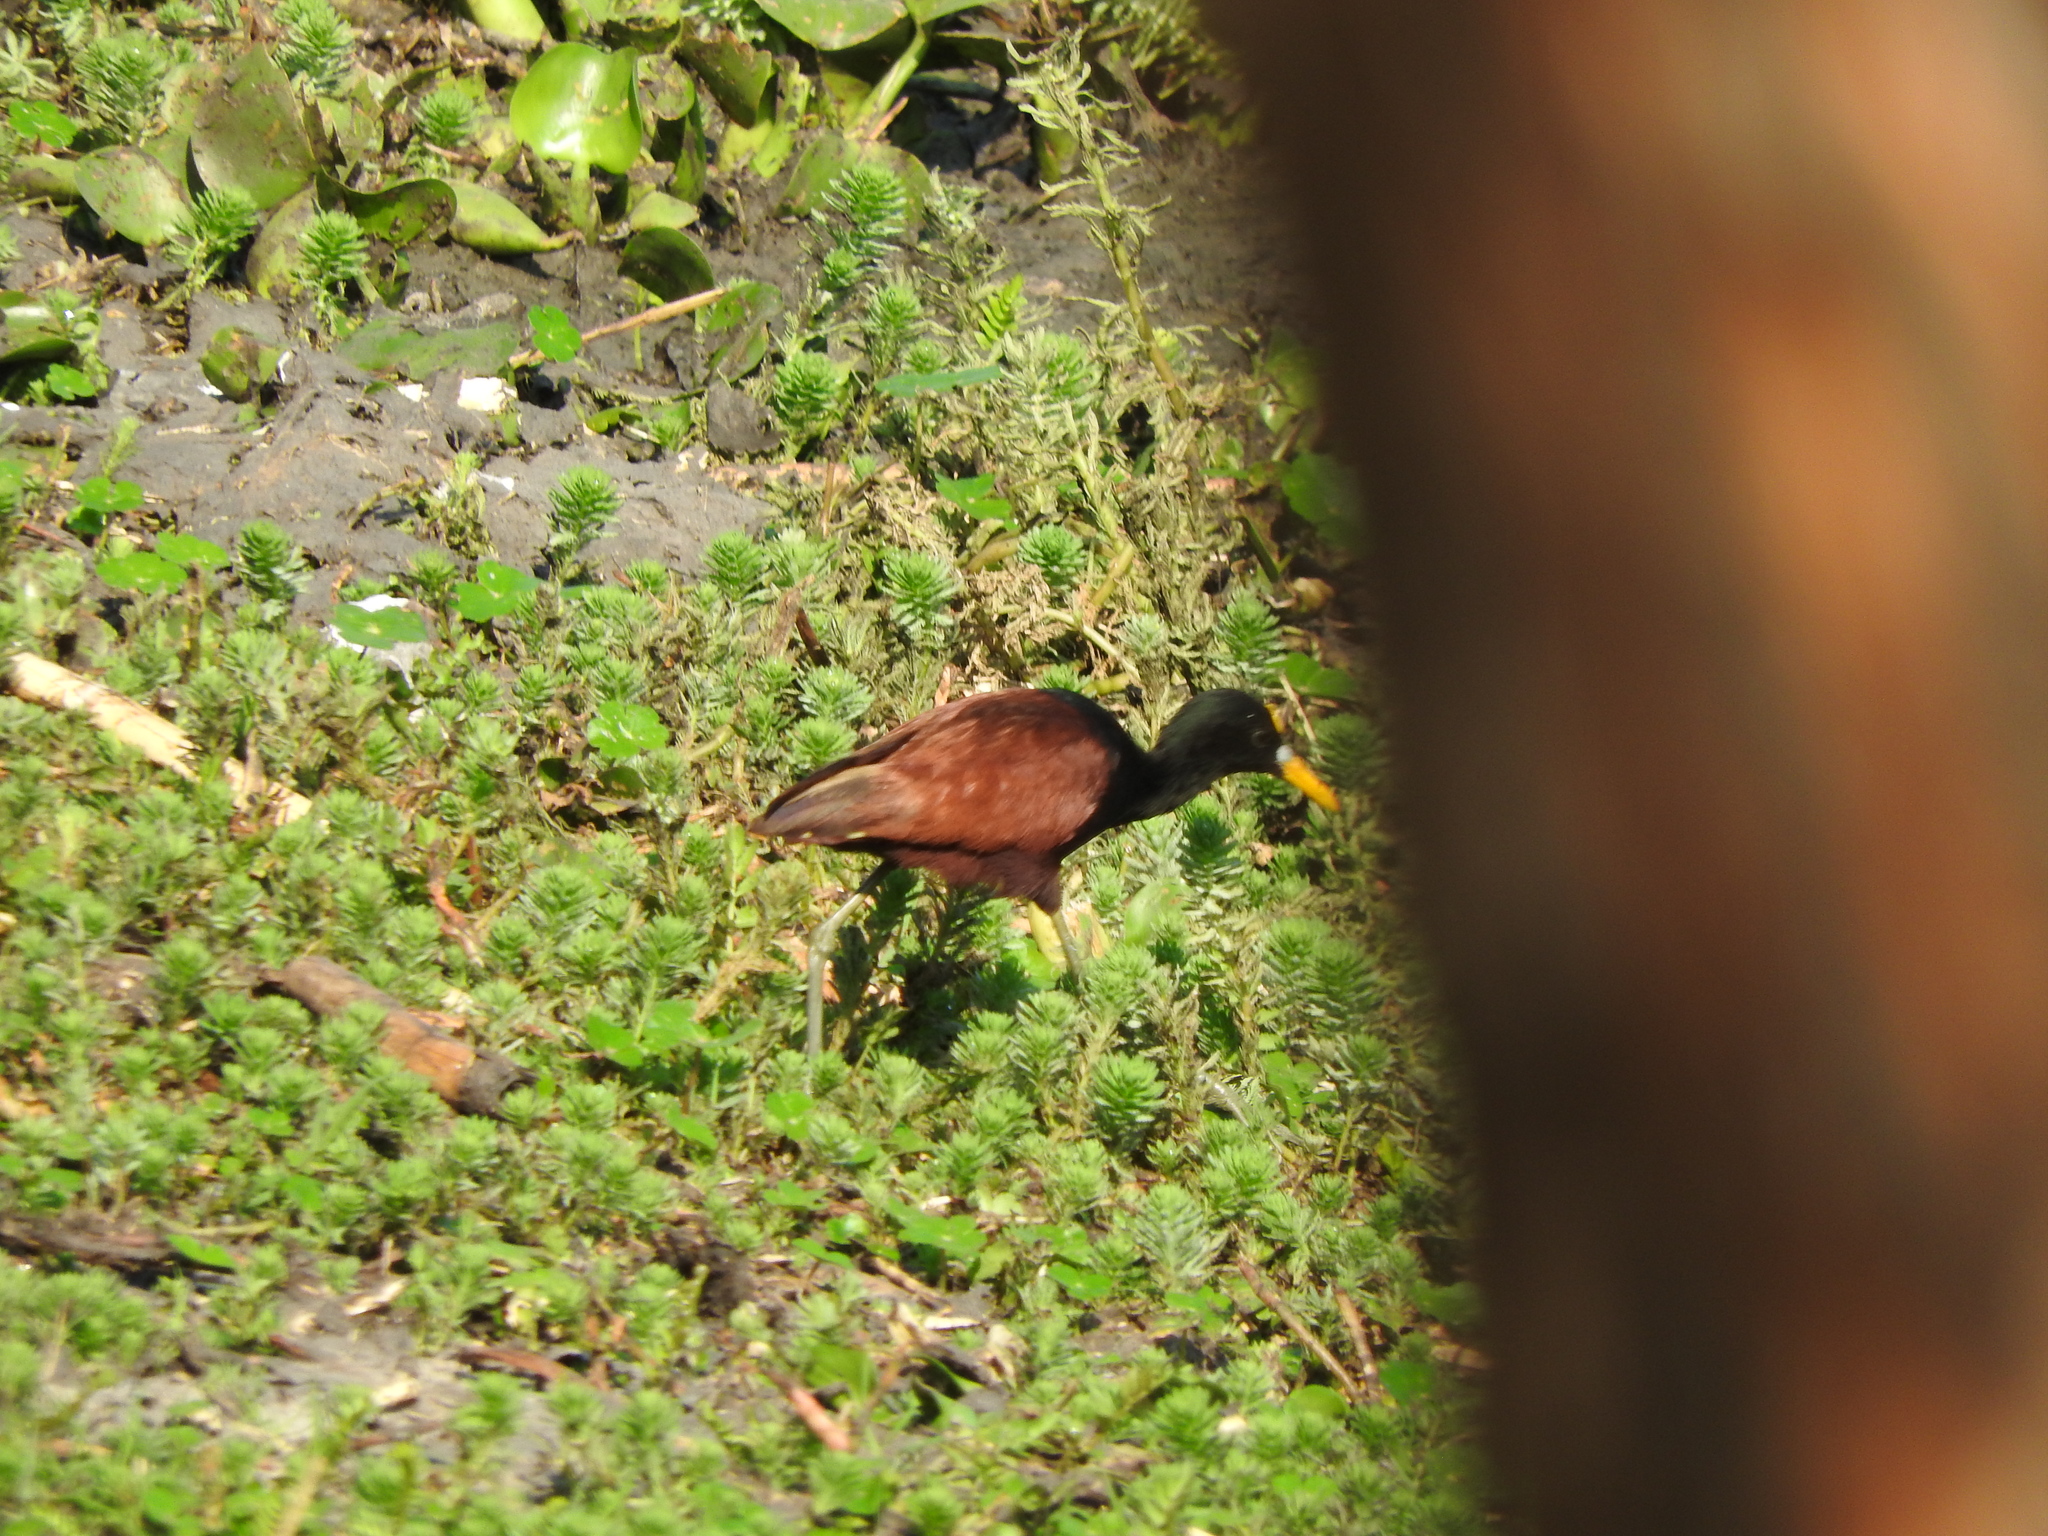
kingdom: Animalia
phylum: Chordata
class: Aves
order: Charadriiformes
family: Jacanidae
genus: Jacana
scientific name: Jacana spinosa
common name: Northern jacana
